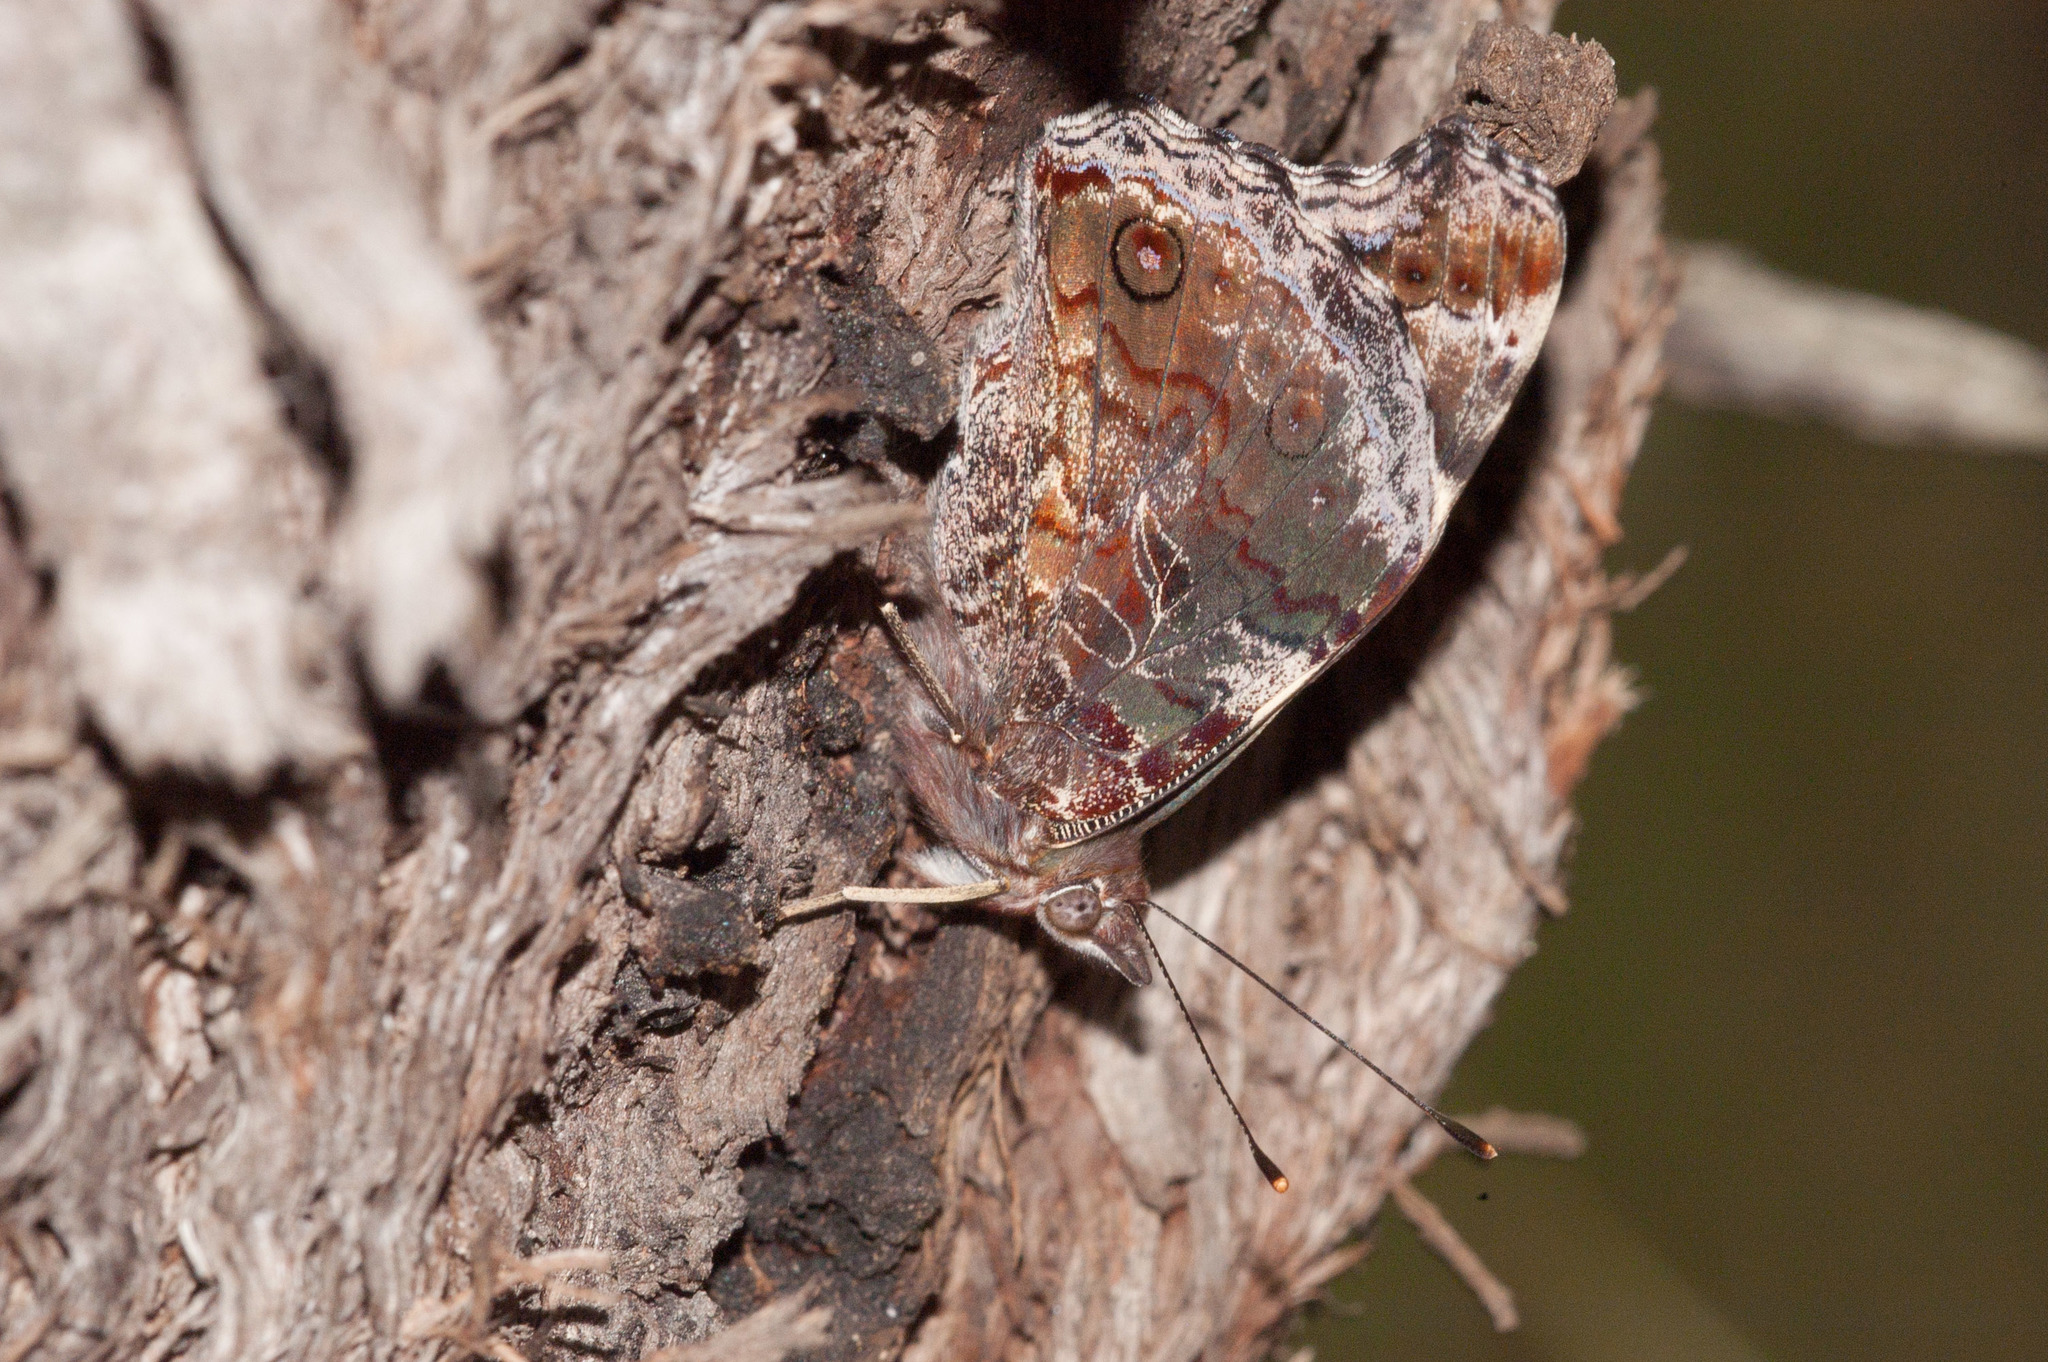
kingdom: Animalia
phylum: Arthropoda
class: Insecta
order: Lepidoptera
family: Nymphalidae
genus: Vanessa
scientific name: Vanessa itea
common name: Yellow admiral
